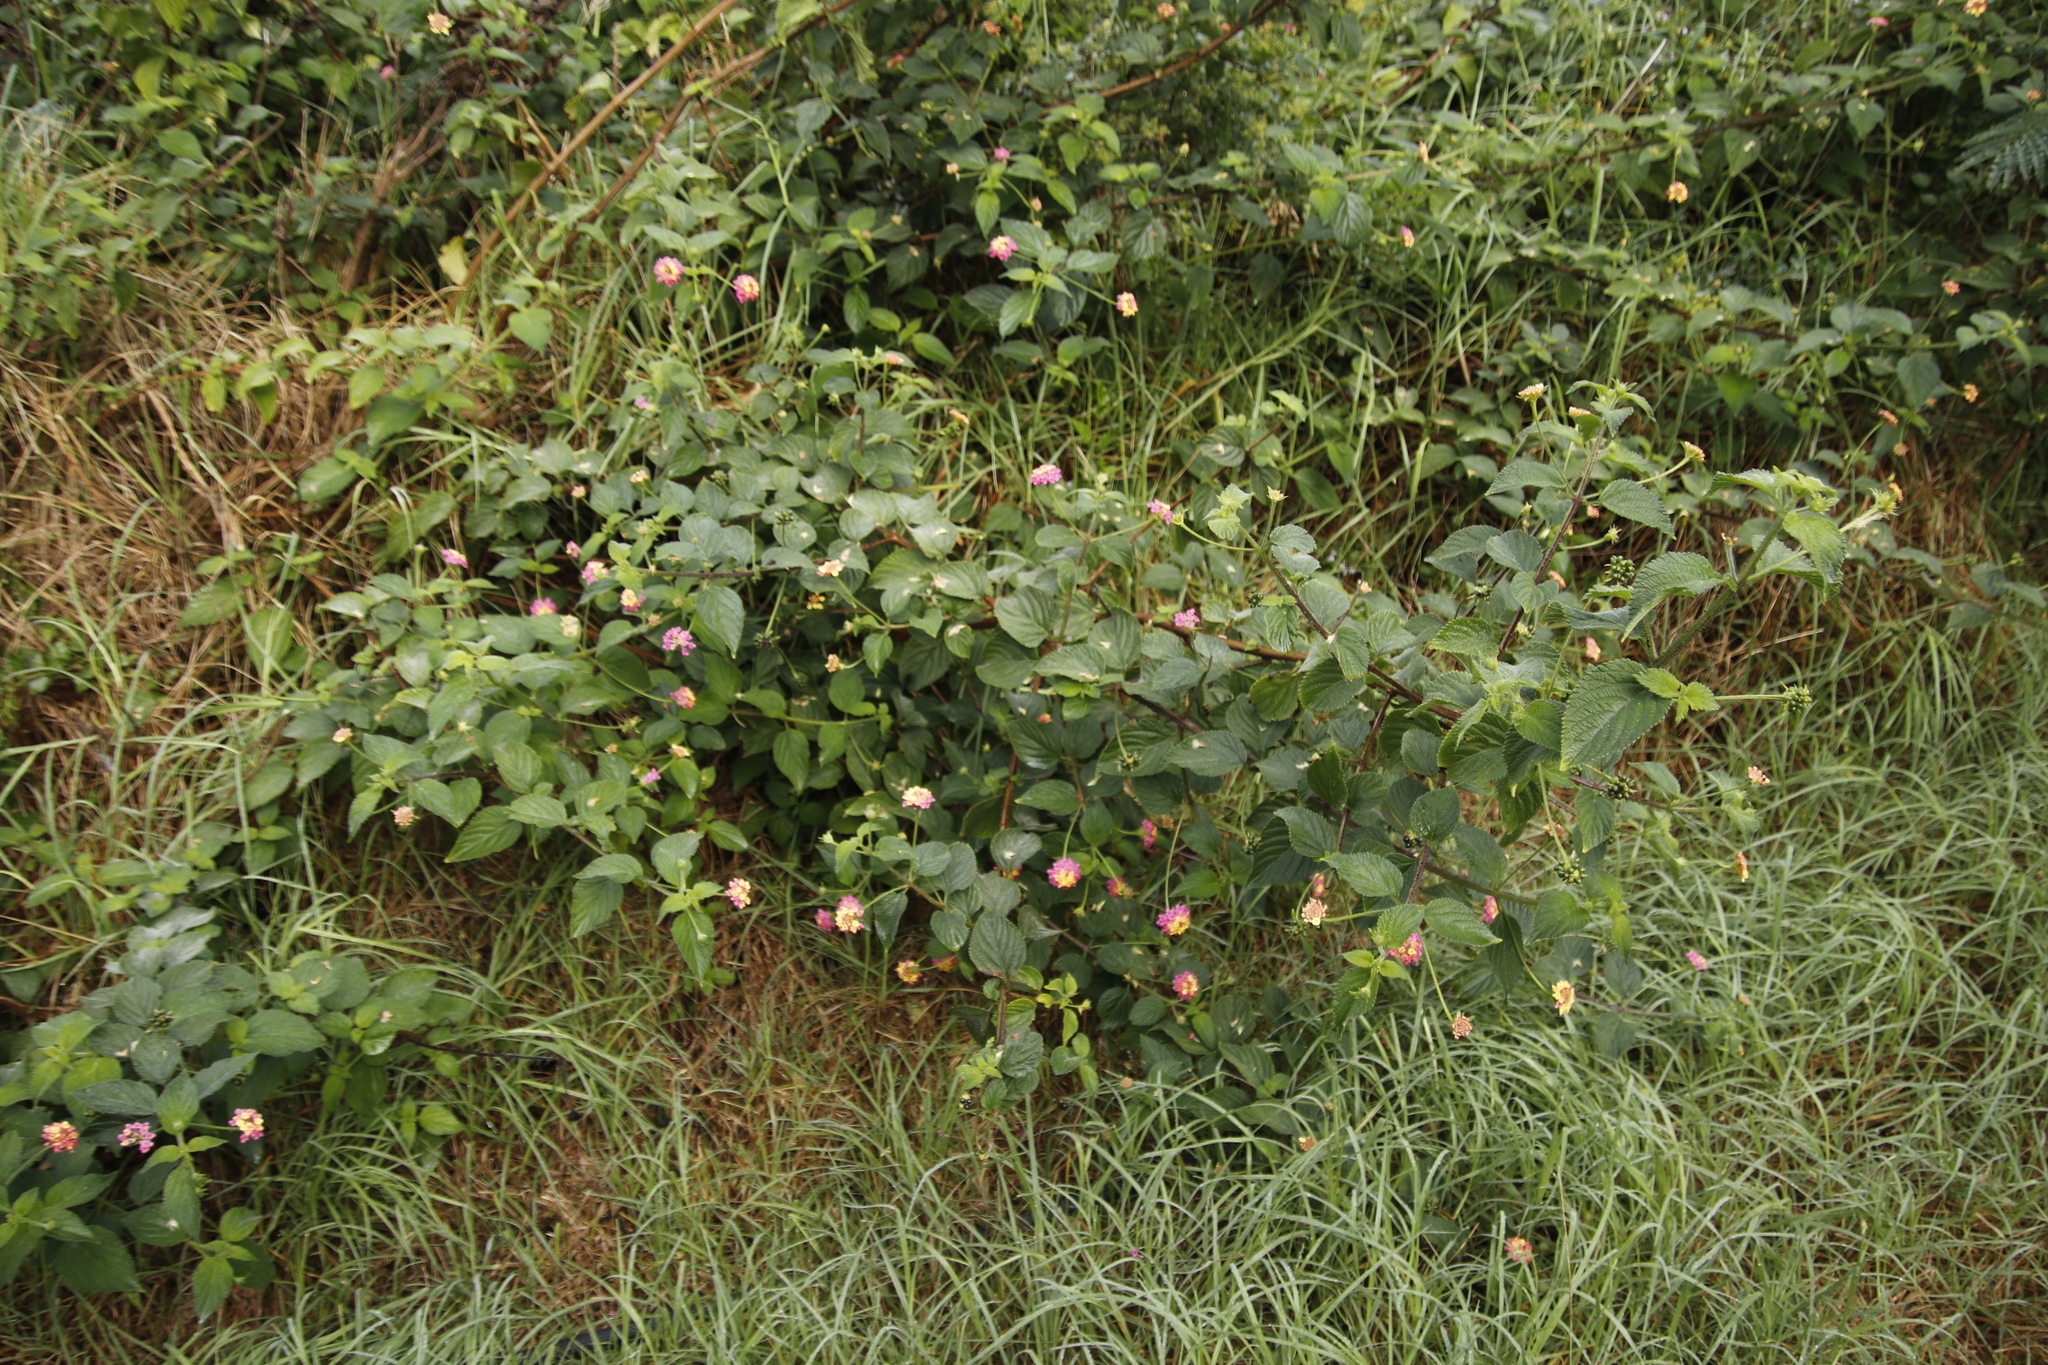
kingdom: Plantae
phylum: Tracheophyta
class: Magnoliopsida
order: Lamiales
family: Verbenaceae
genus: Lantana
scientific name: Lantana camara
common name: Lantana
